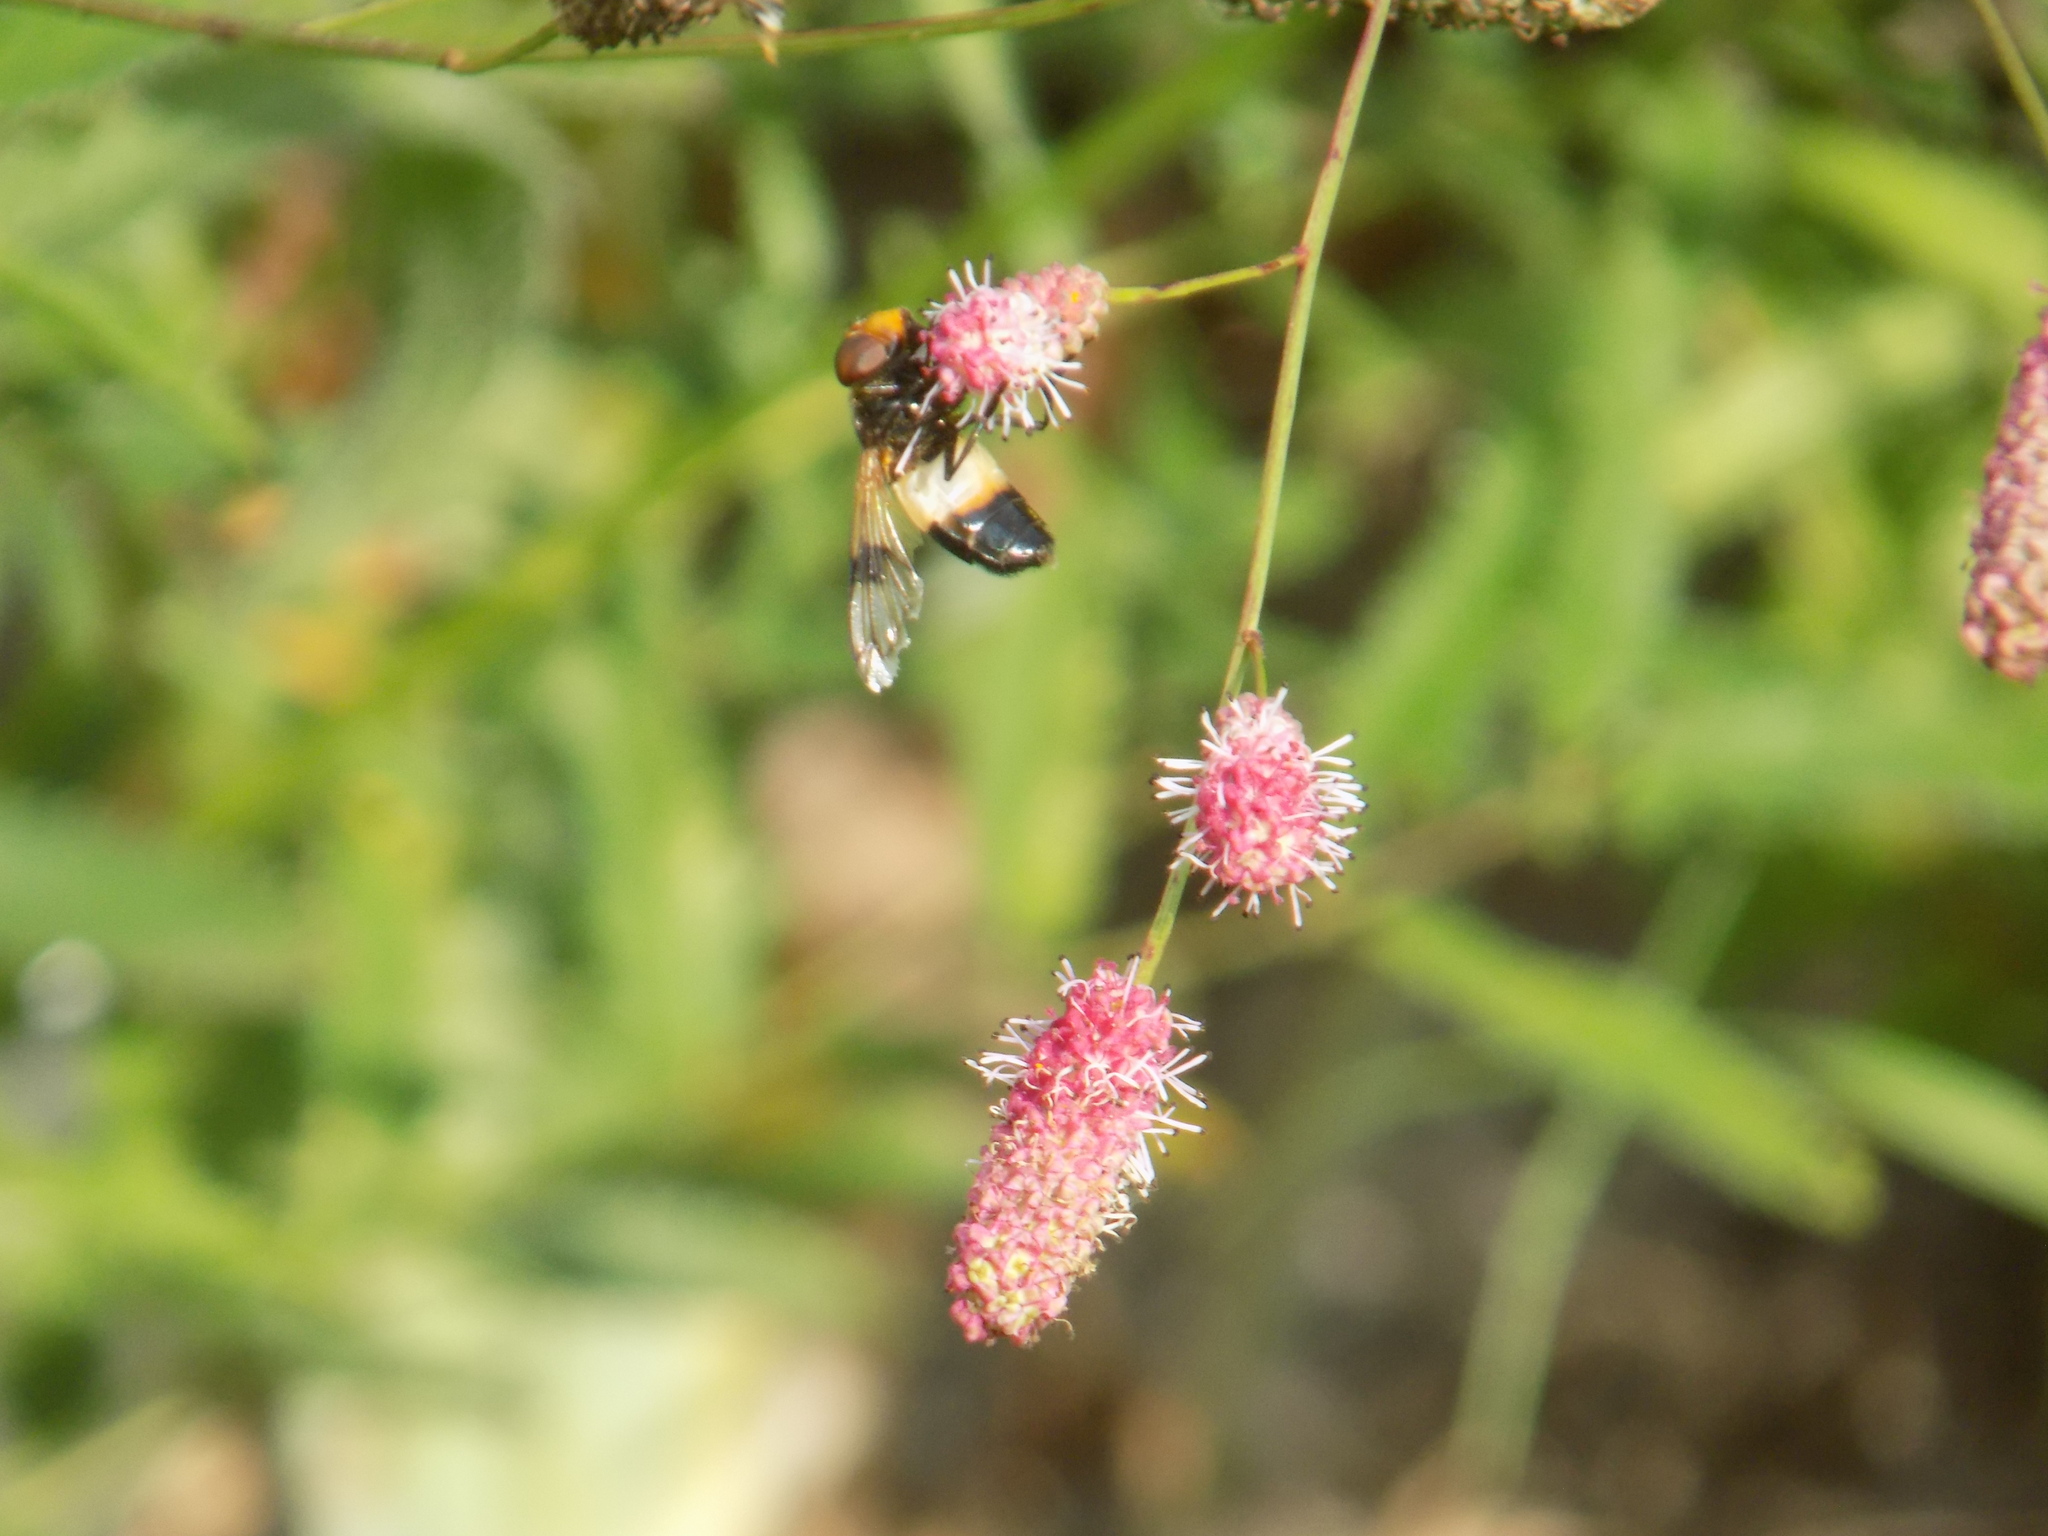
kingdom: Animalia
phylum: Arthropoda
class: Insecta
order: Diptera
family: Syrphidae
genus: Volucella
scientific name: Volucella pellucens
